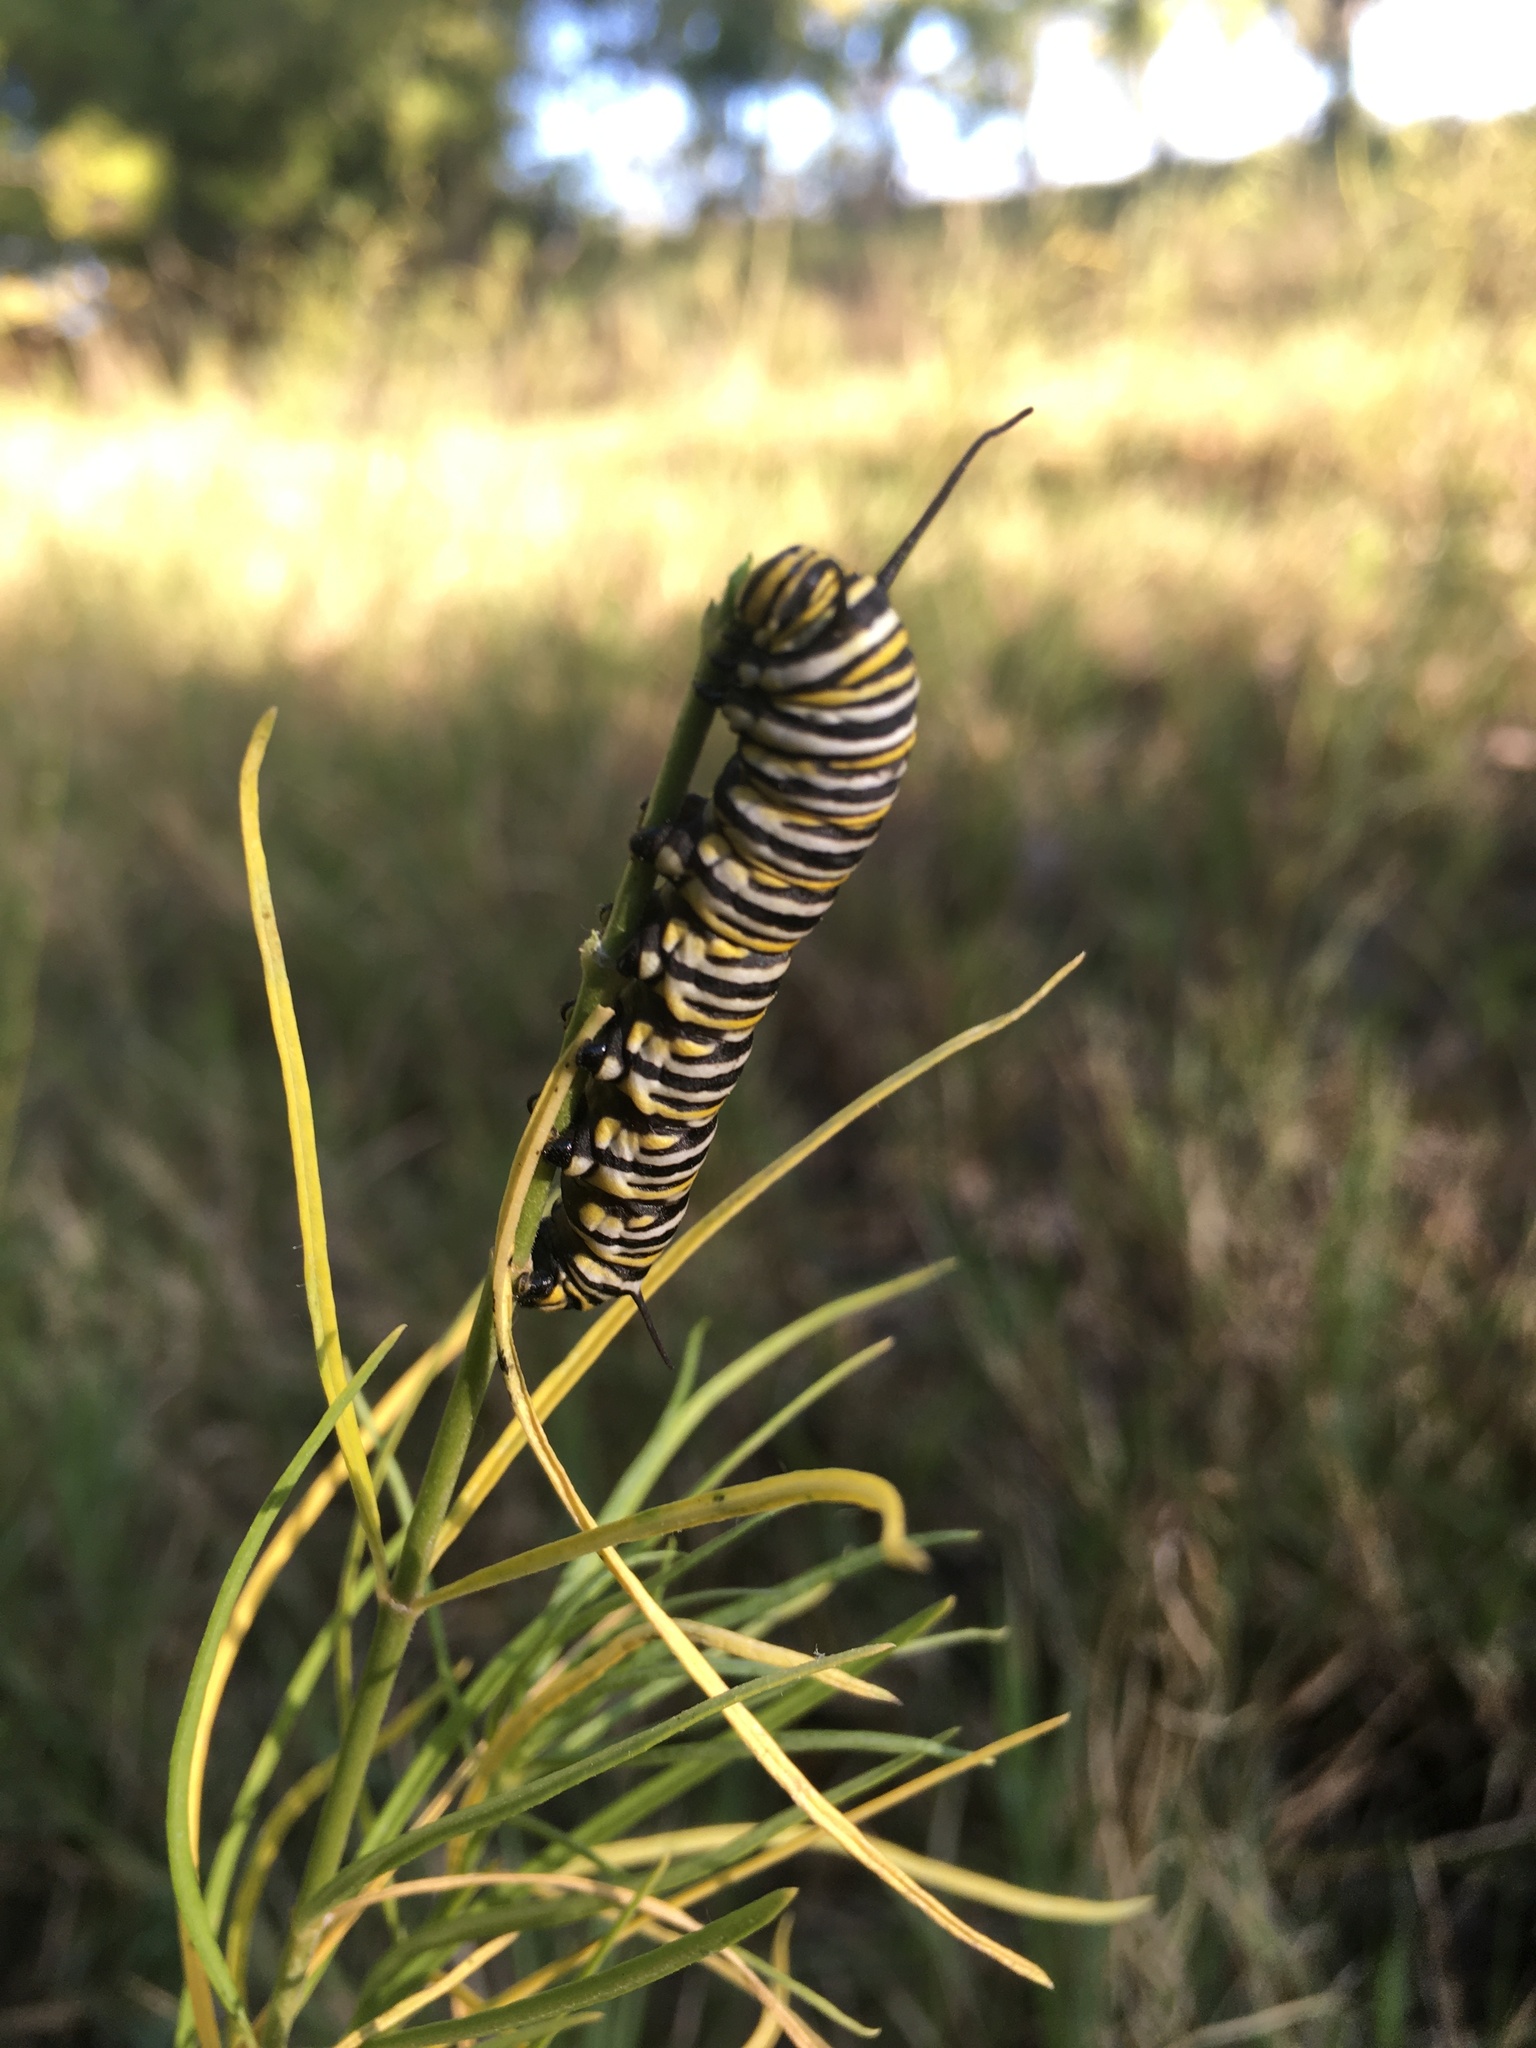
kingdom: Animalia
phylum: Arthropoda
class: Insecta
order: Lepidoptera
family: Nymphalidae
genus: Danaus
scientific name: Danaus plexippus
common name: Monarch
